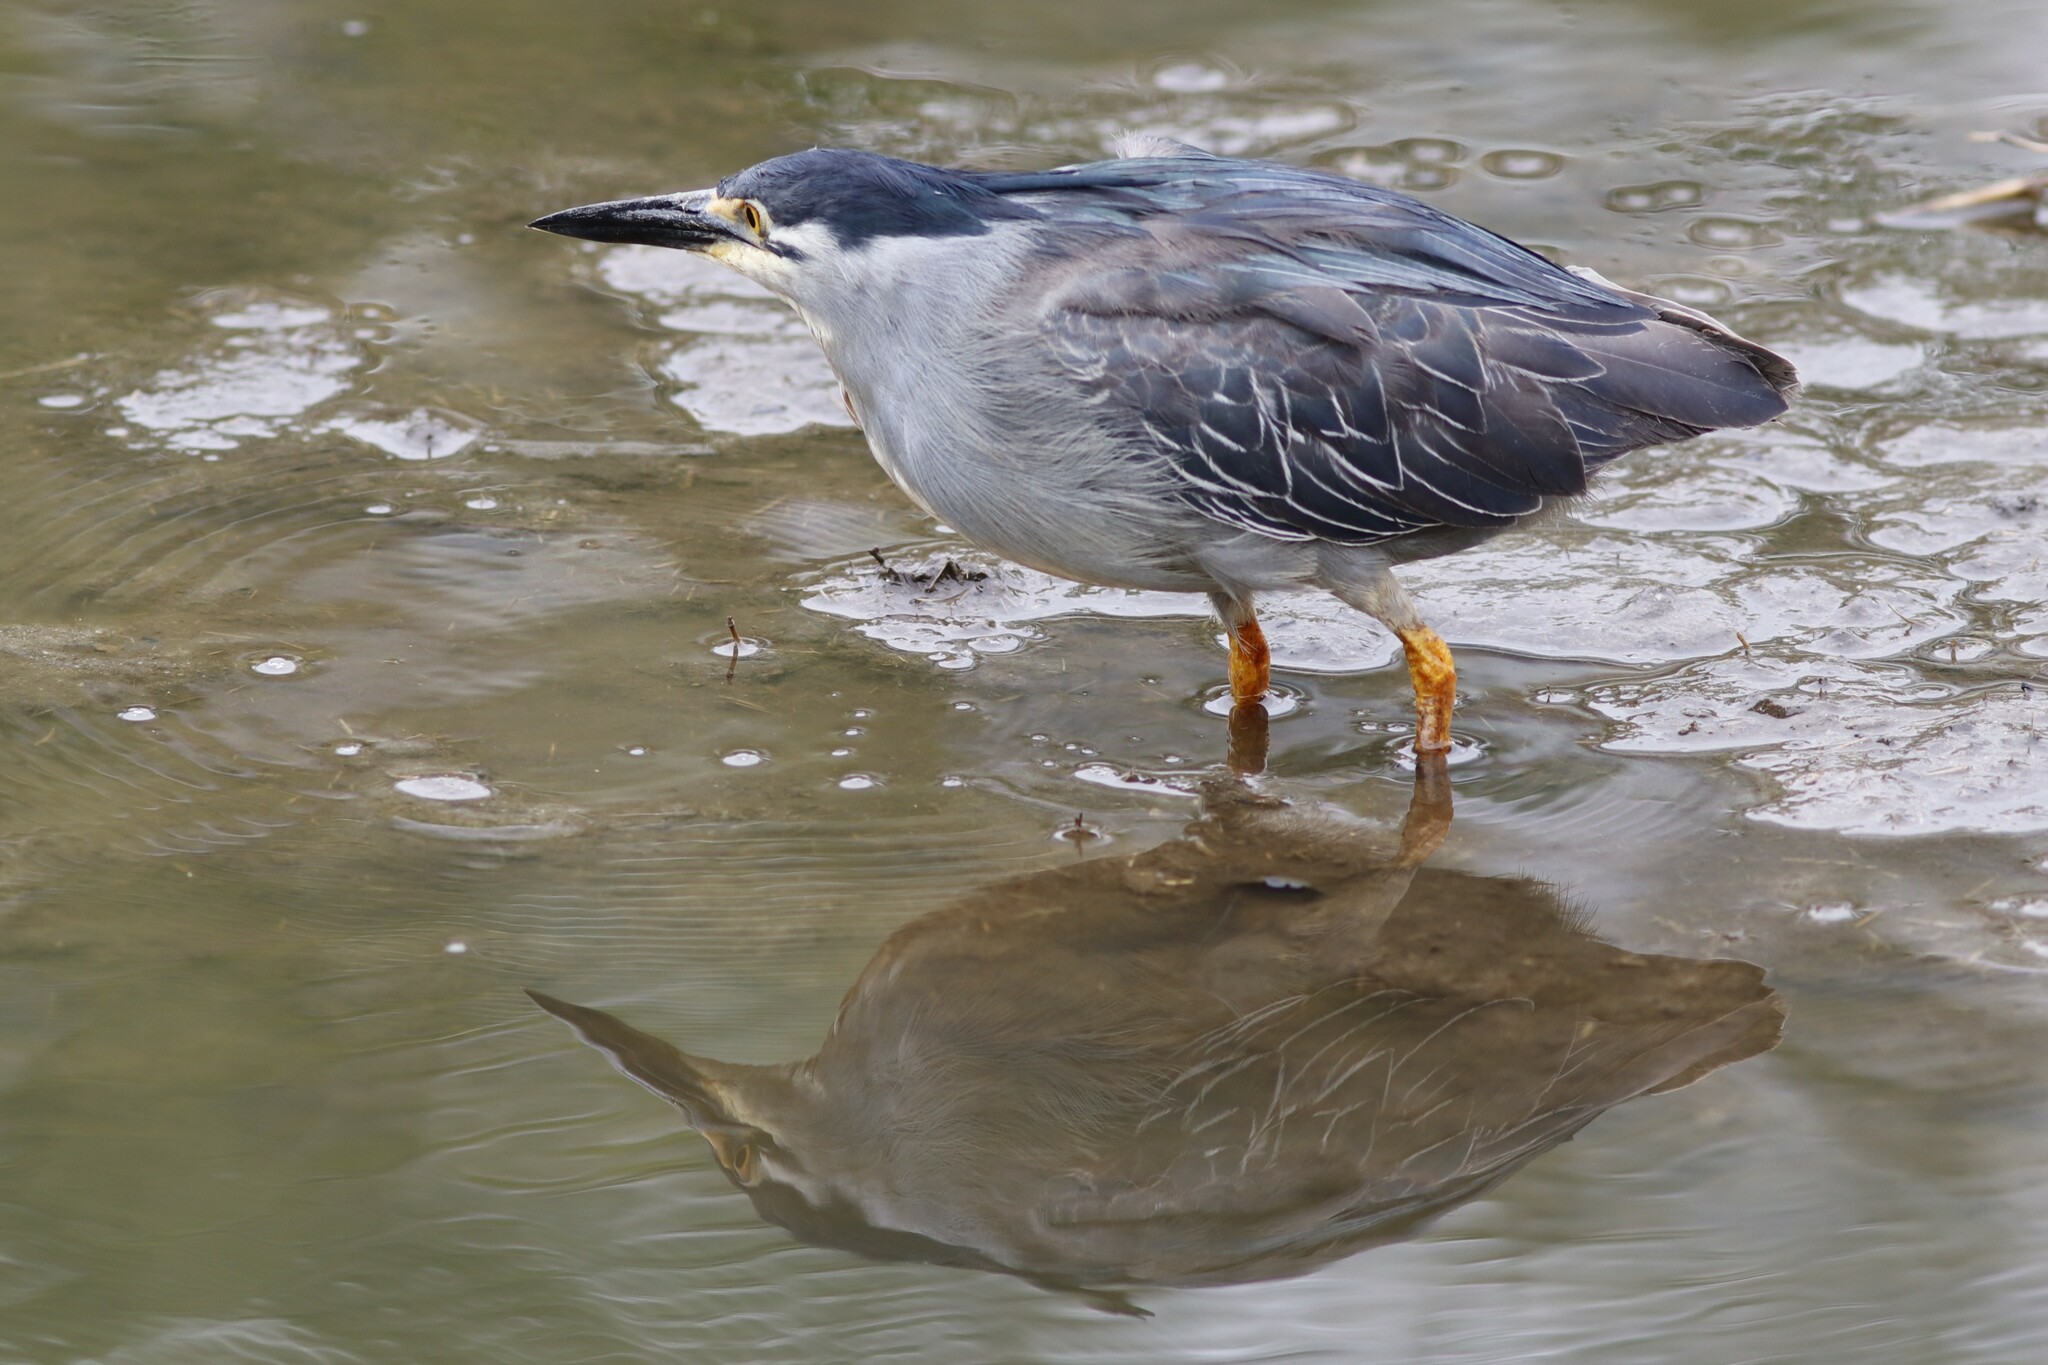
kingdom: Animalia
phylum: Chordata
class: Aves
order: Pelecaniformes
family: Ardeidae
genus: Butorides
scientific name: Butorides striata
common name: Striated heron
